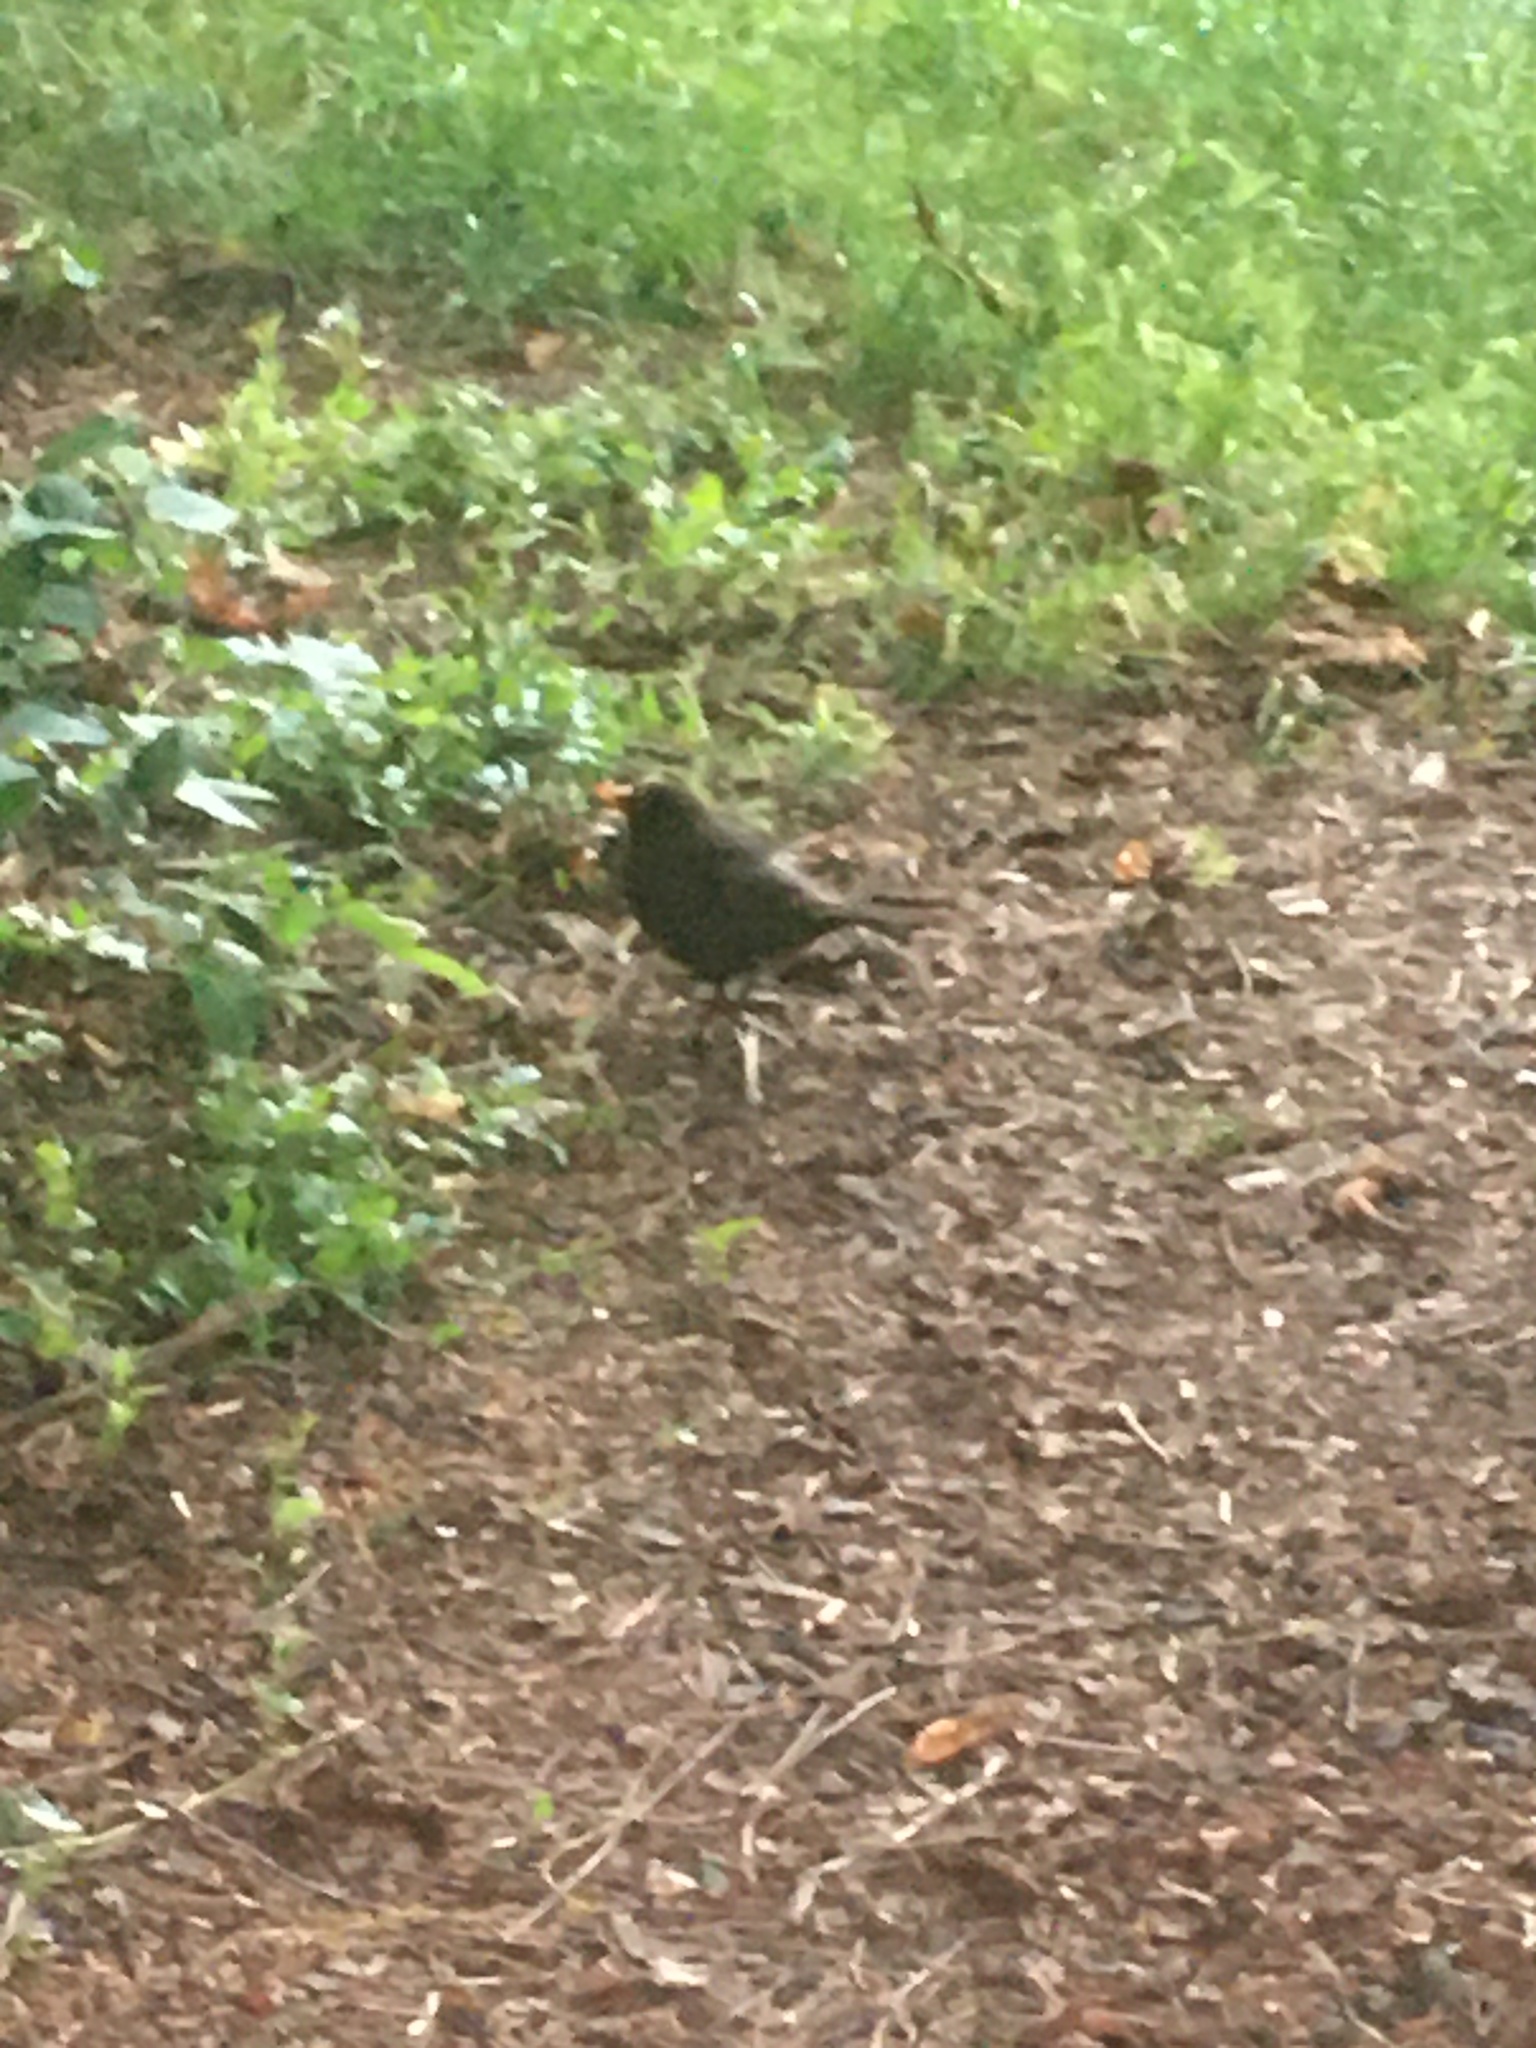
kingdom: Animalia
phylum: Chordata
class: Aves
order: Passeriformes
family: Turdidae
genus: Turdus
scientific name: Turdus merula
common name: Common blackbird
